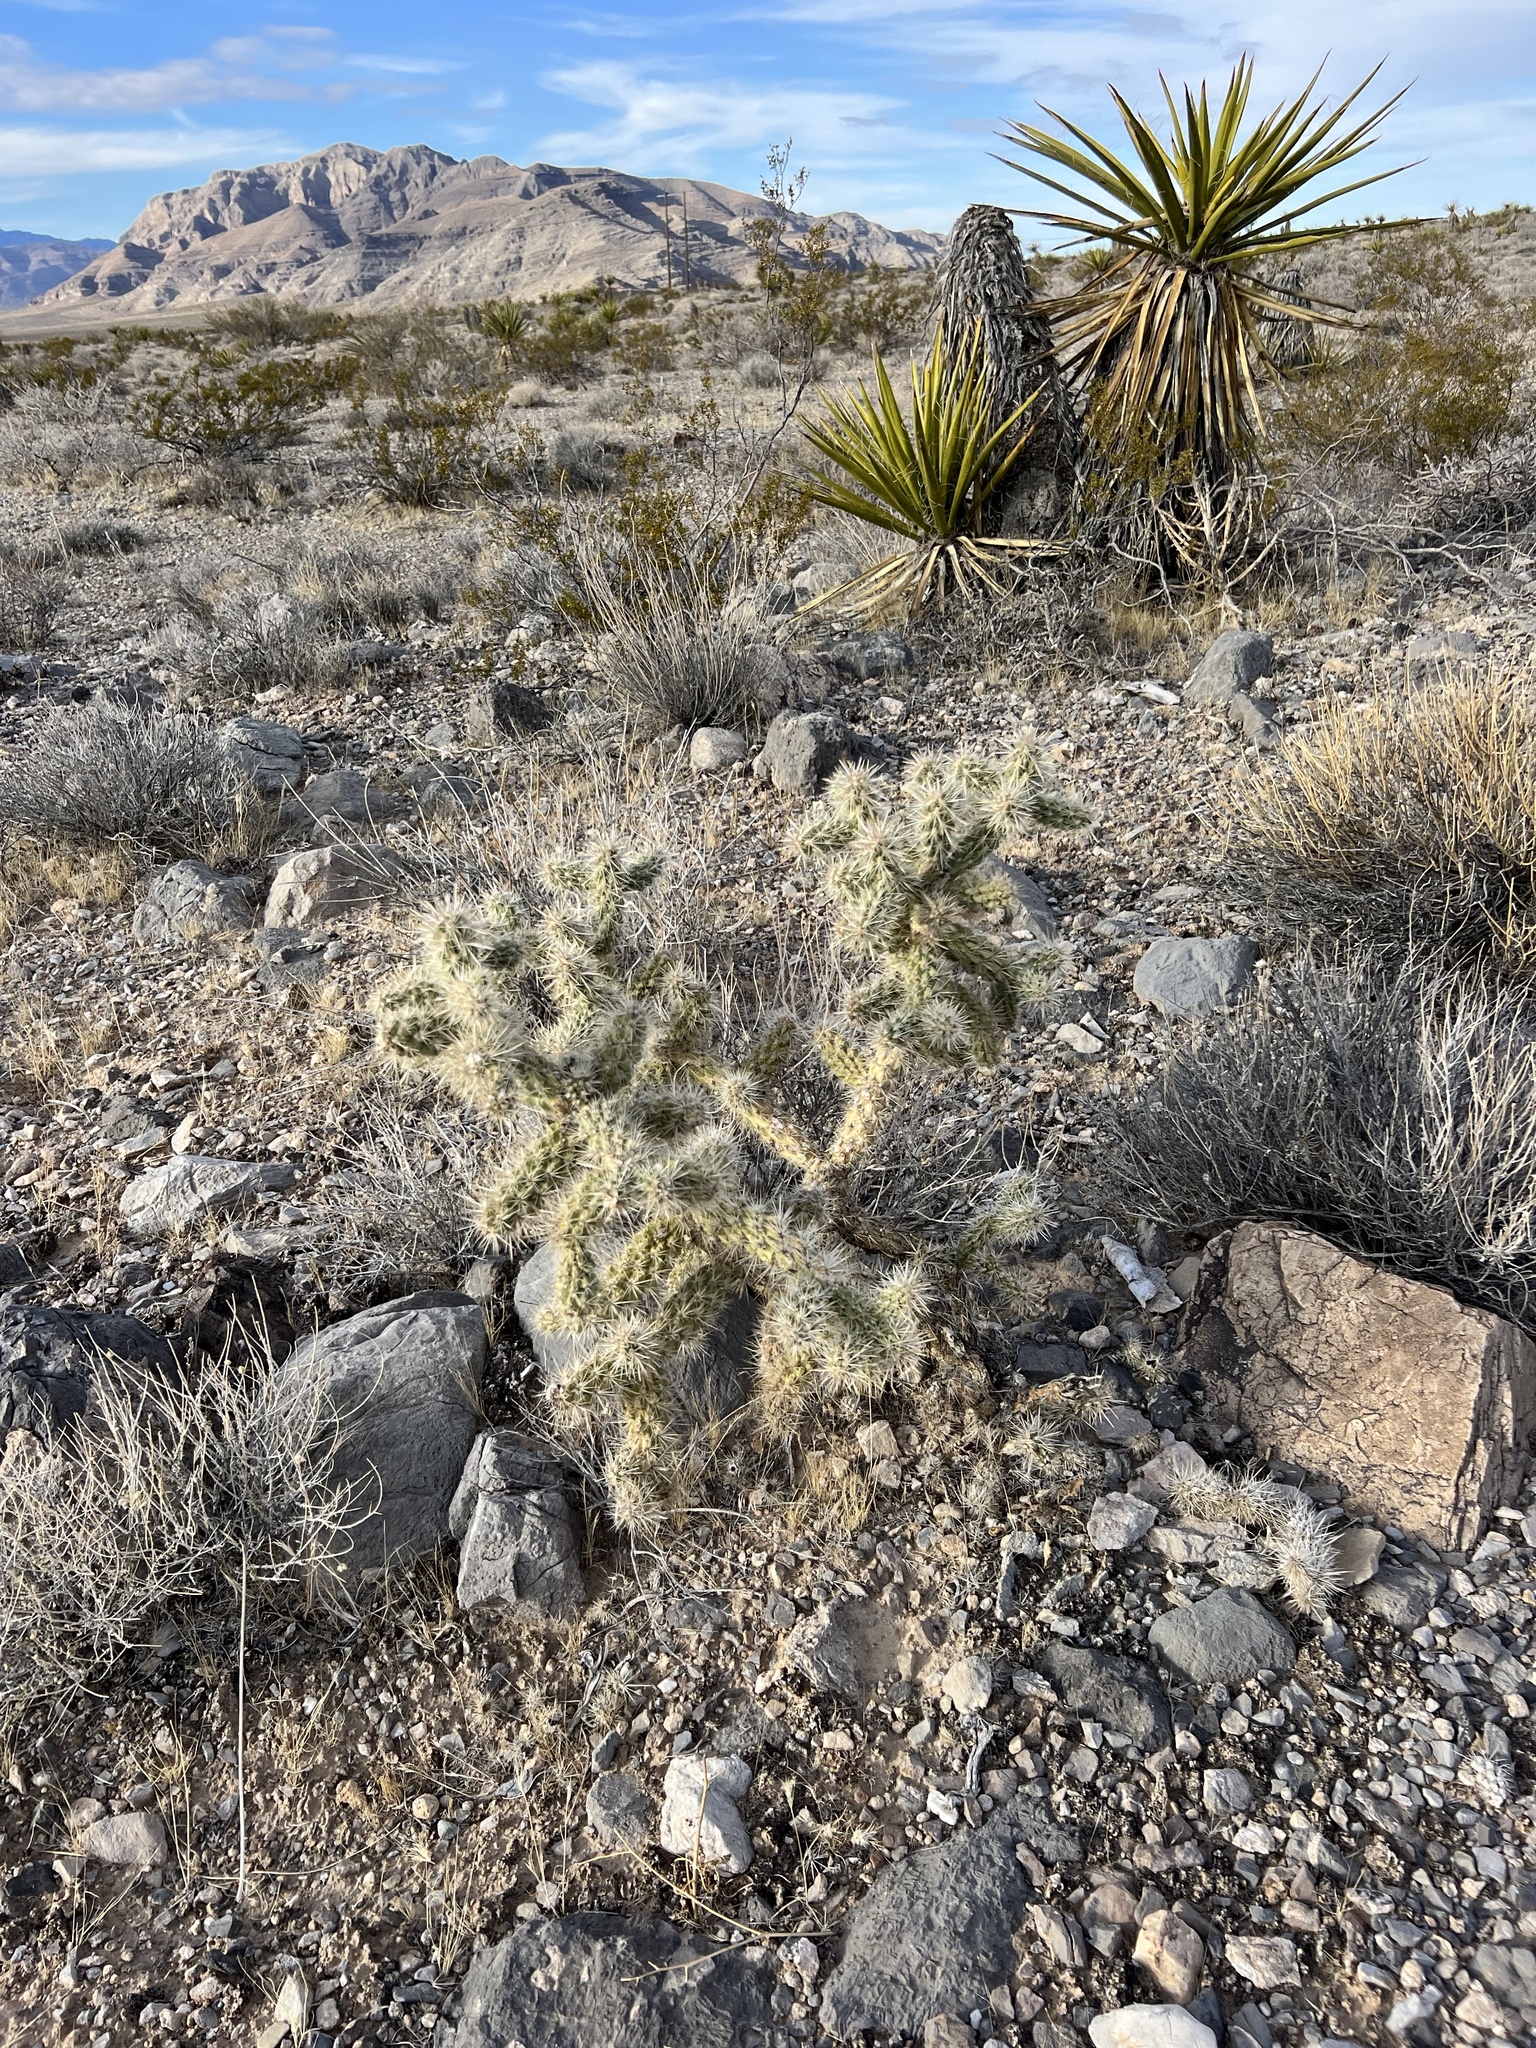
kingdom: Plantae
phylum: Tracheophyta
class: Magnoliopsida
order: Caryophyllales
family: Cactaceae
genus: Cylindropuntia
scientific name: Cylindropuntia echinocarpa
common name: Ground cholla
